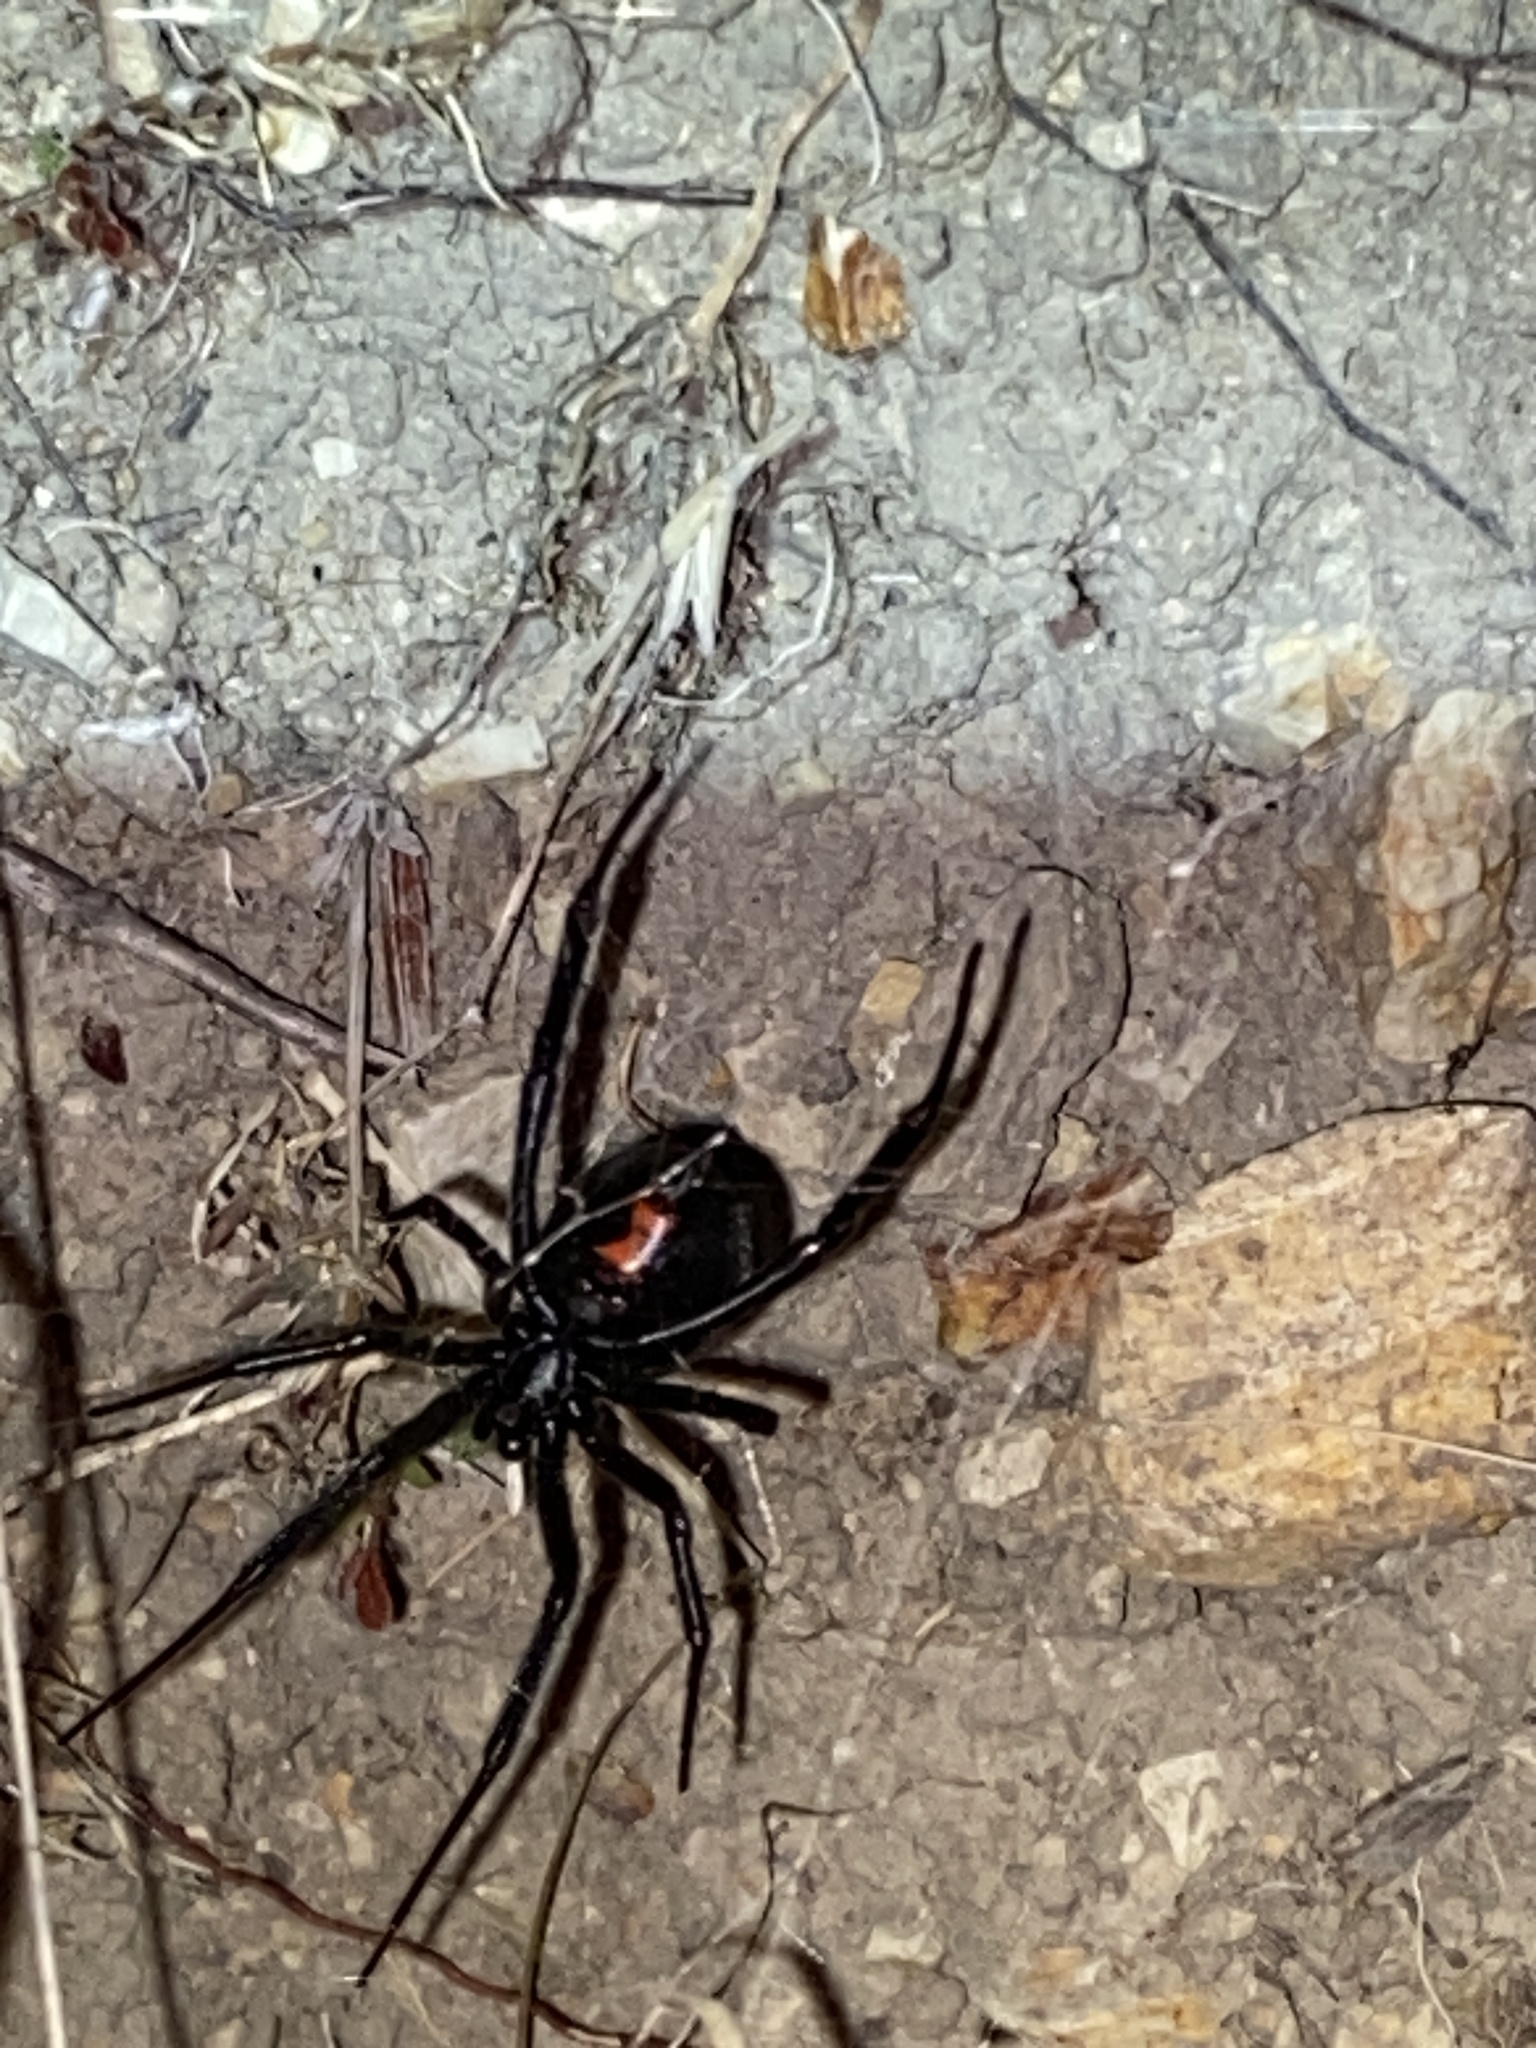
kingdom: Animalia
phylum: Arthropoda
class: Arachnida
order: Araneae
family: Theridiidae
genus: Latrodectus
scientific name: Latrodectus hesperus
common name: Western black widow
